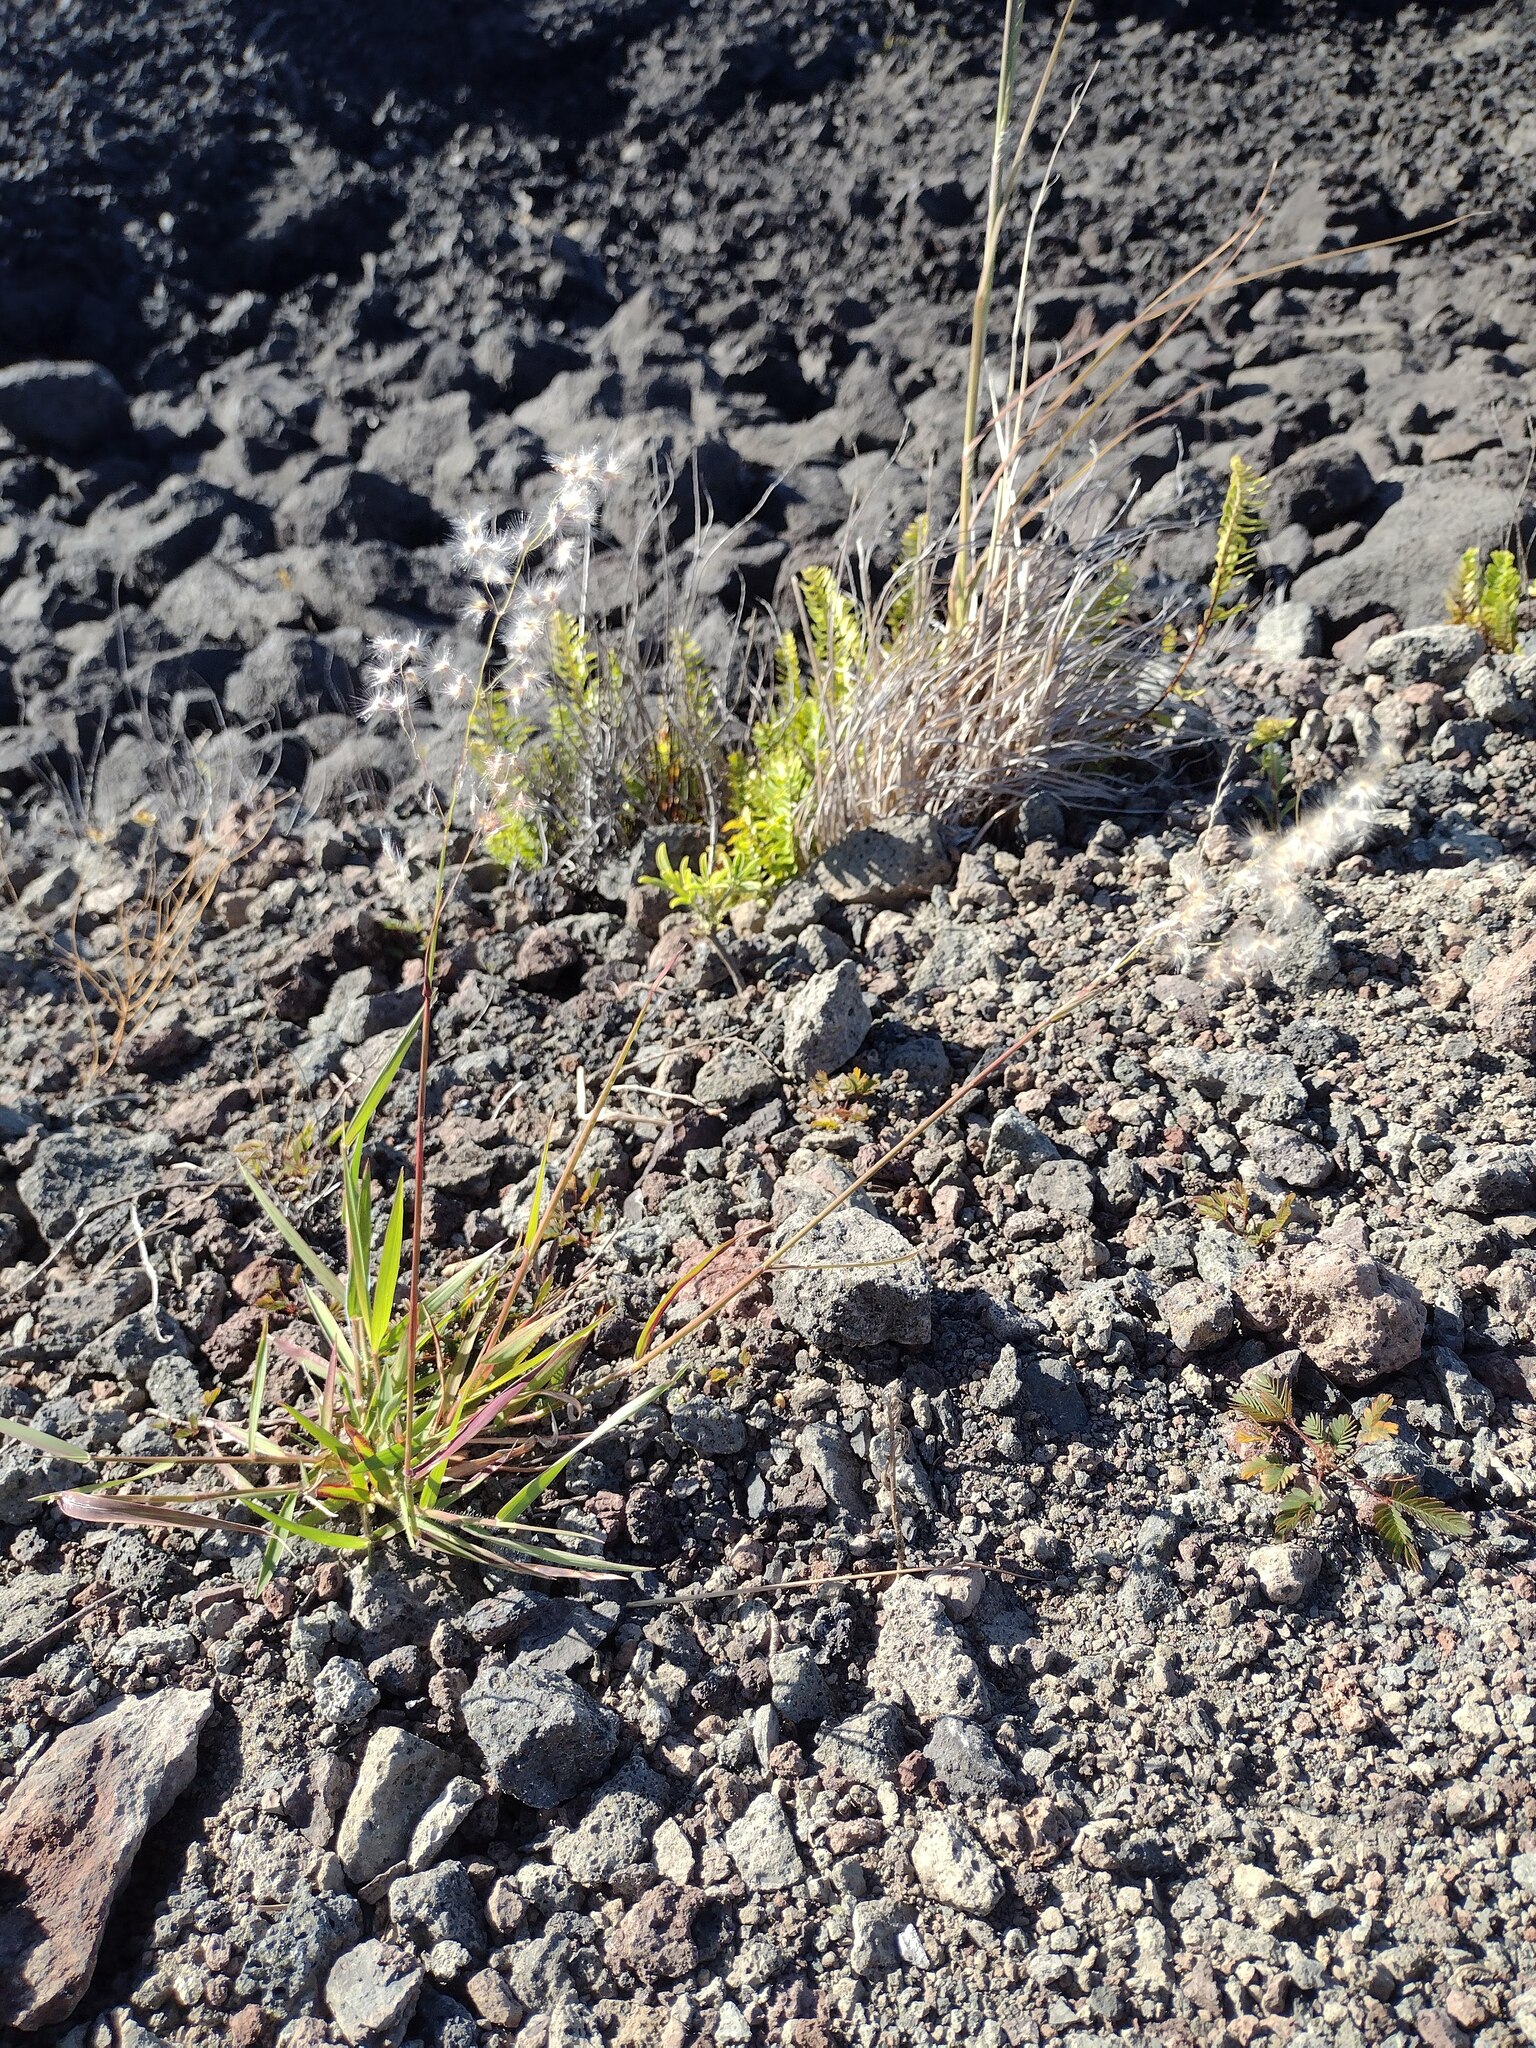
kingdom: Plantae
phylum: Tracheophyta
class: Liliopsida
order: Poales
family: Poaceae
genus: Melinis
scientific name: Melinis repens
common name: Rose natal grass
